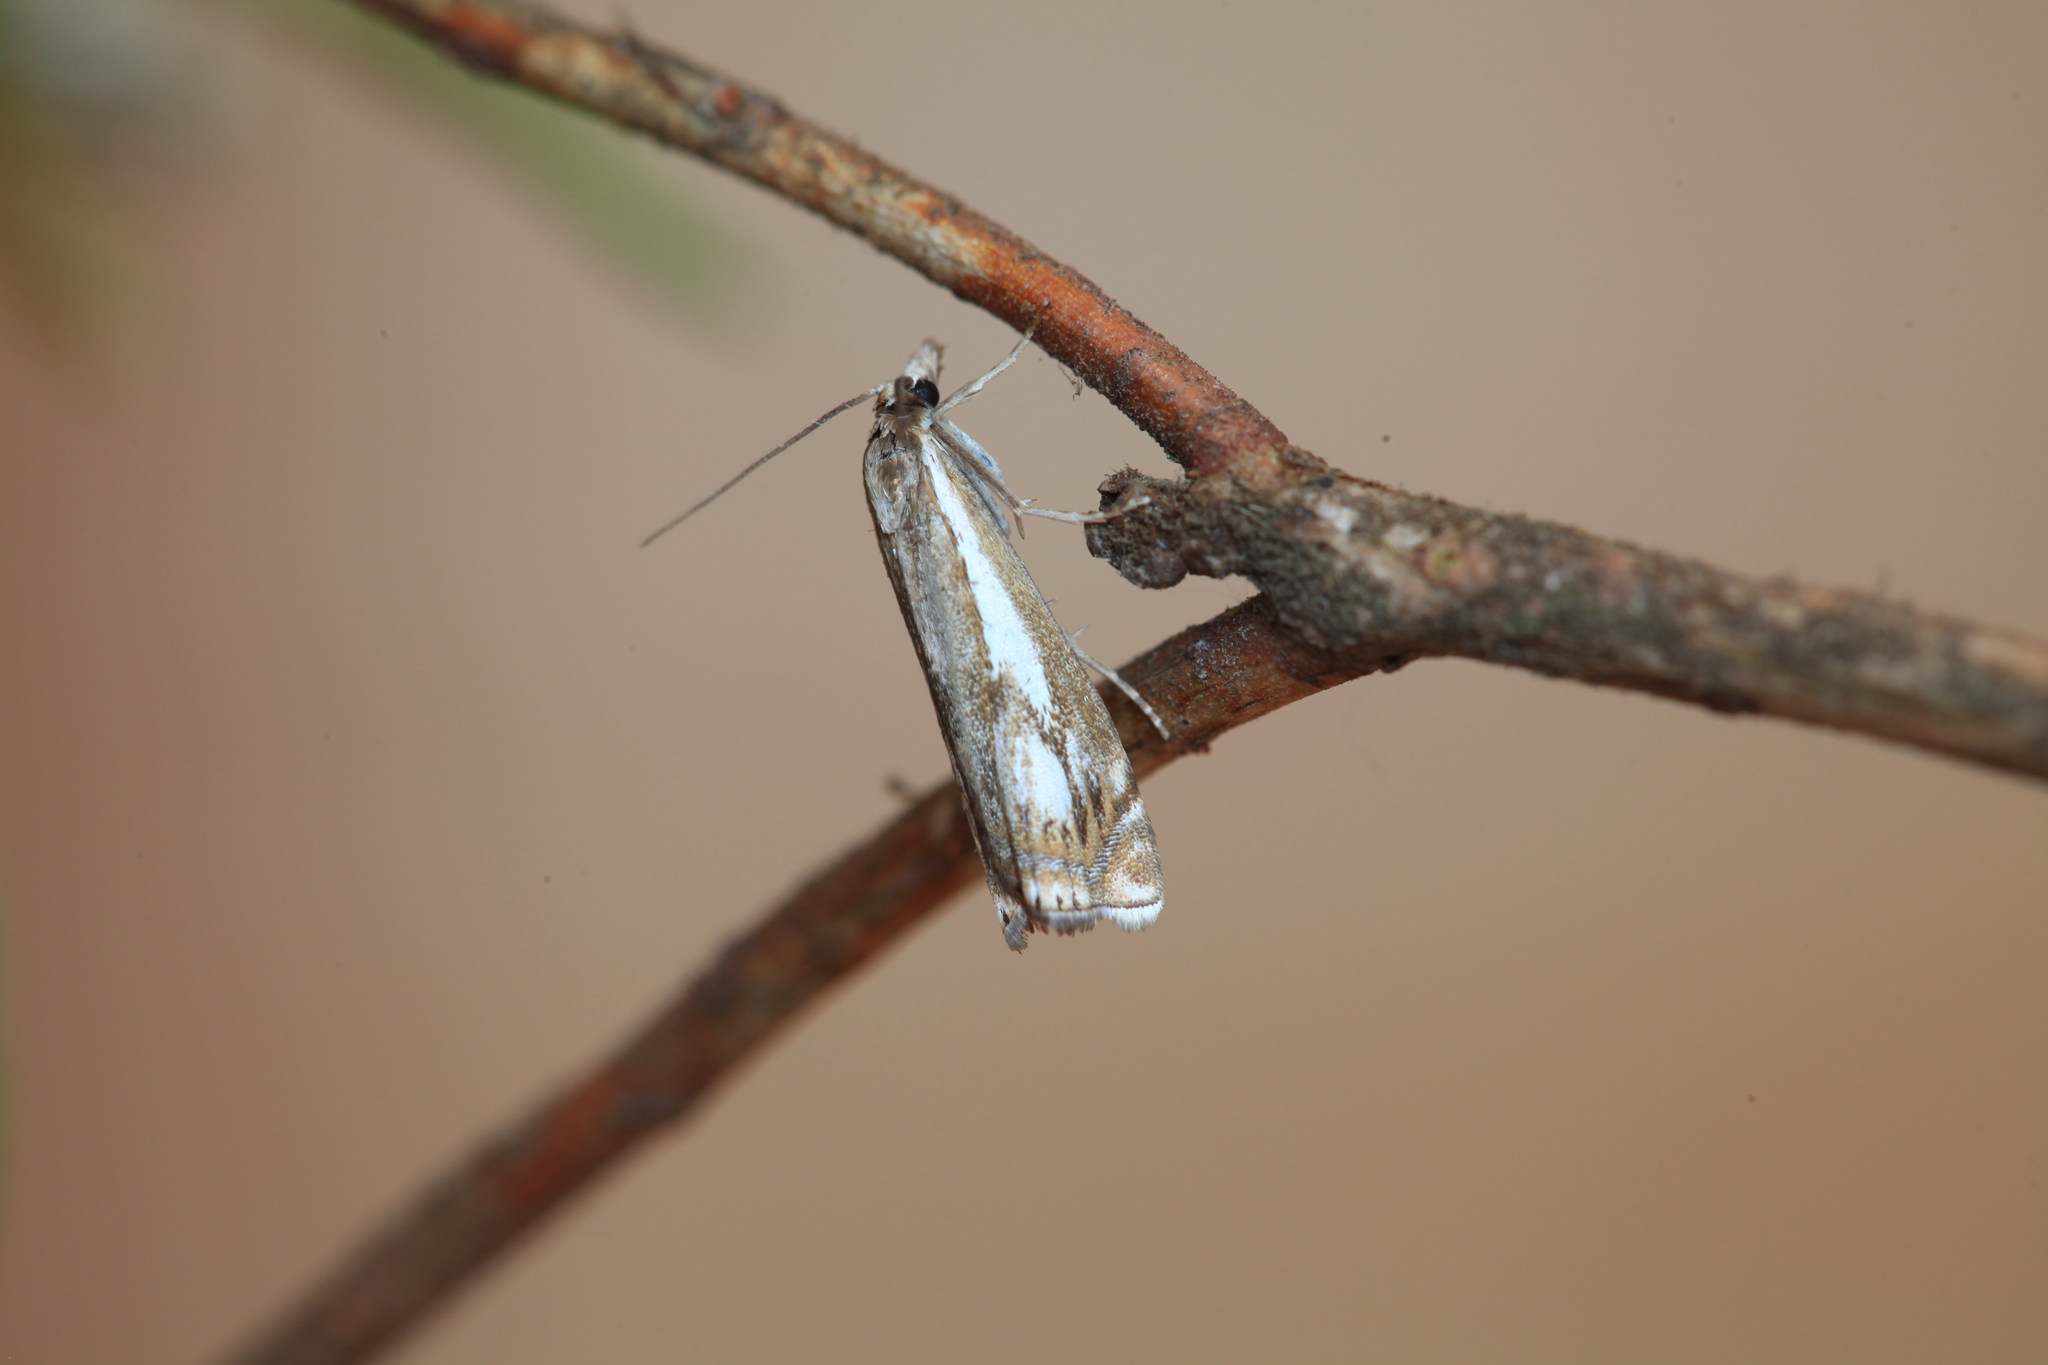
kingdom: Animalia
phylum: Arthropoda
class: Insecta
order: Lepidoptera
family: Crambidae
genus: Crambus
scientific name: Crambus alienellus
